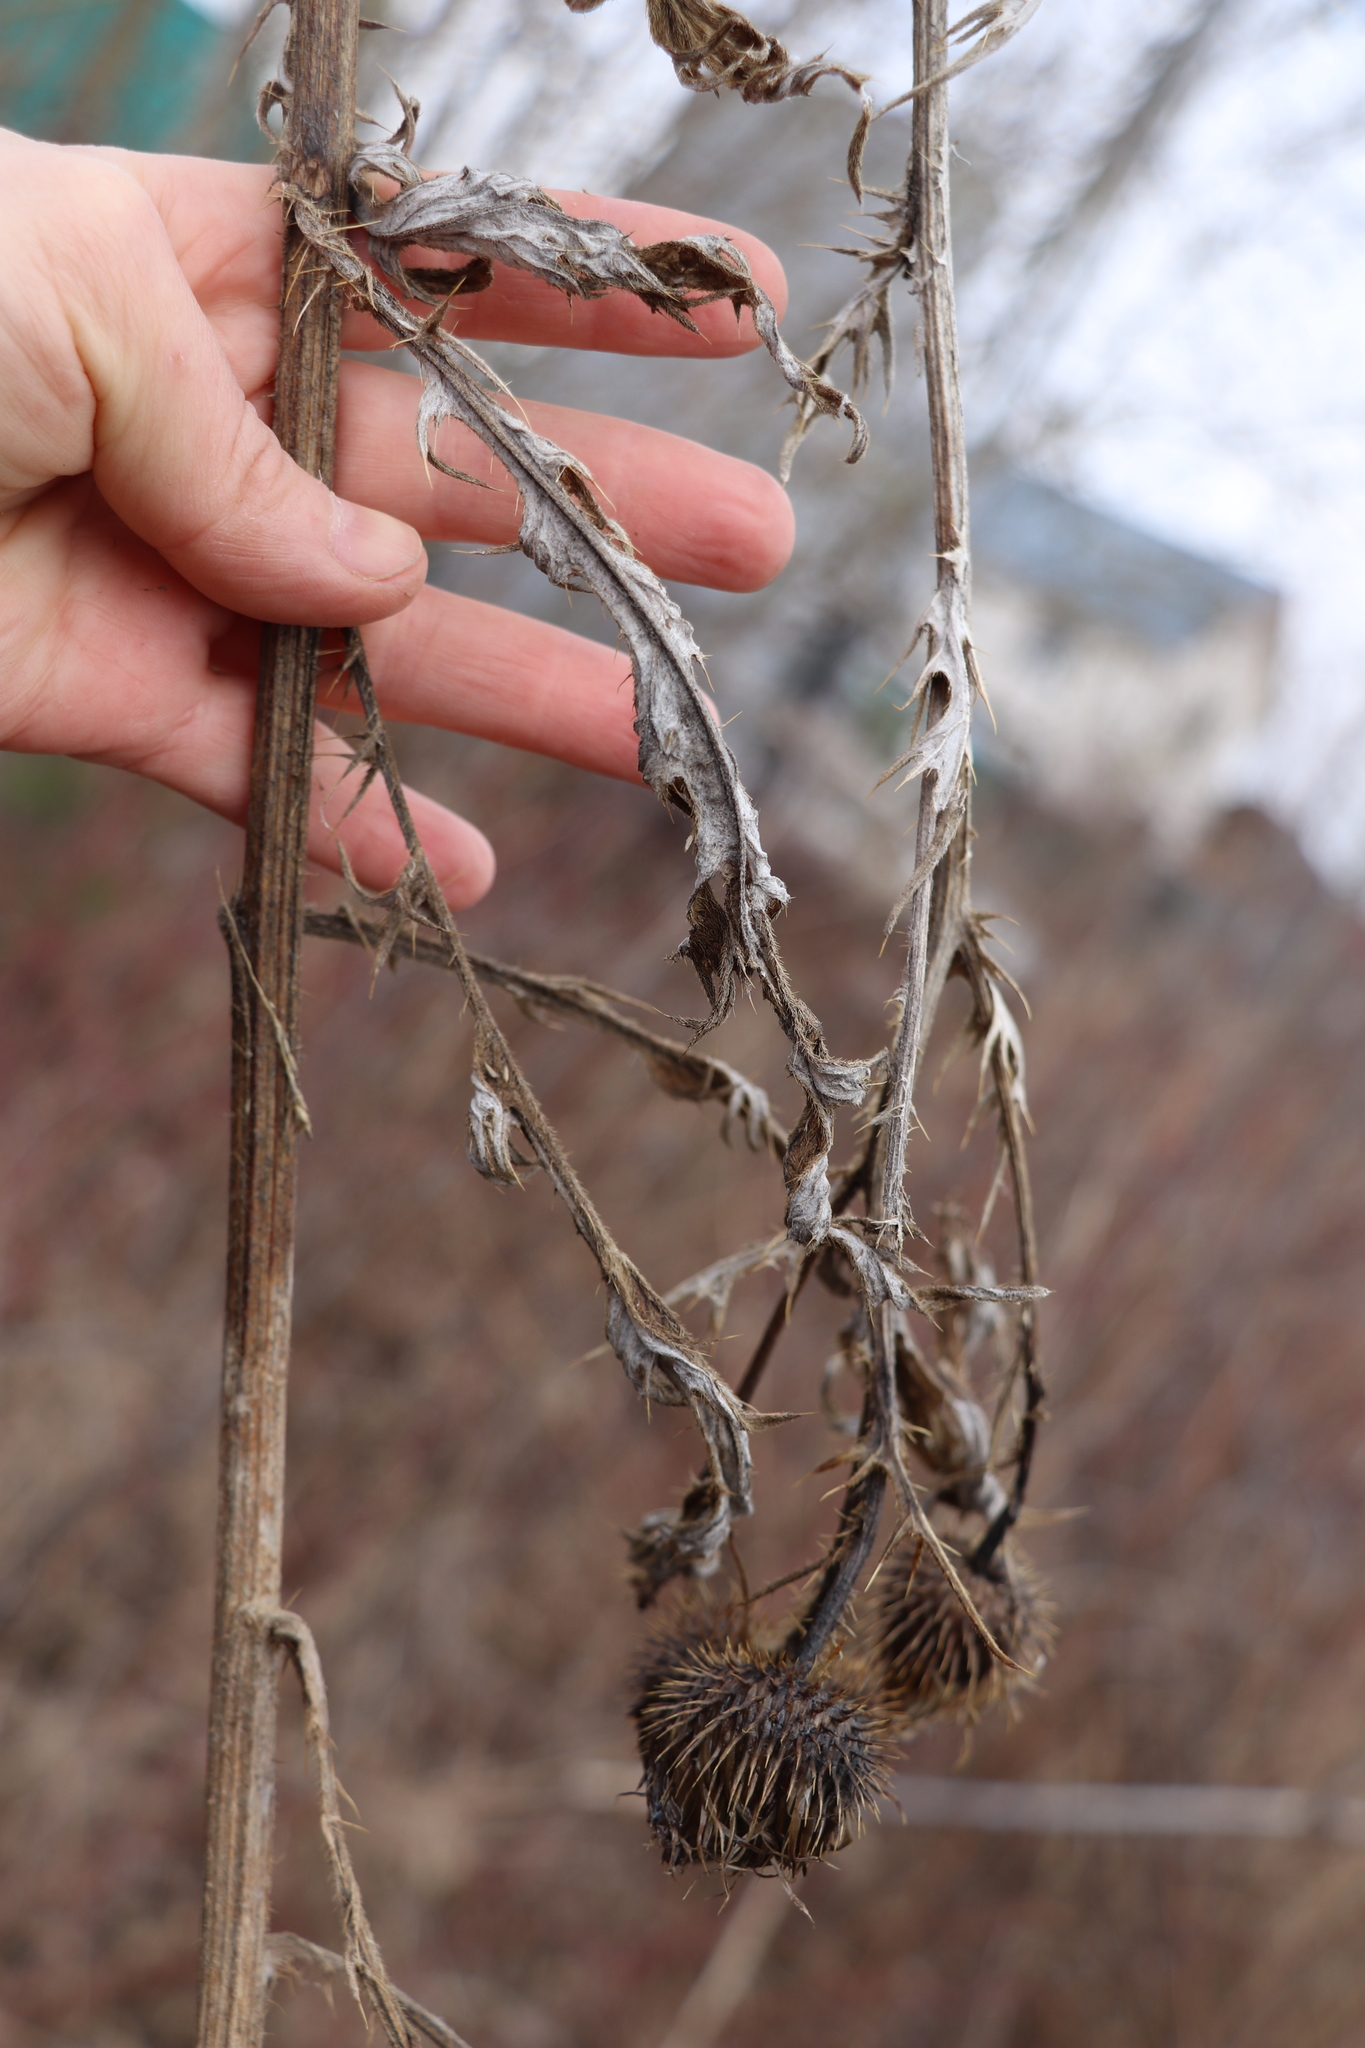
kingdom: Plantae
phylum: Tracheophyta
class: Magnoliopsida
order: Asterales
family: Asteraceae
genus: Cirsium
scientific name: Cirsium vulgare
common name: Bull thistle
